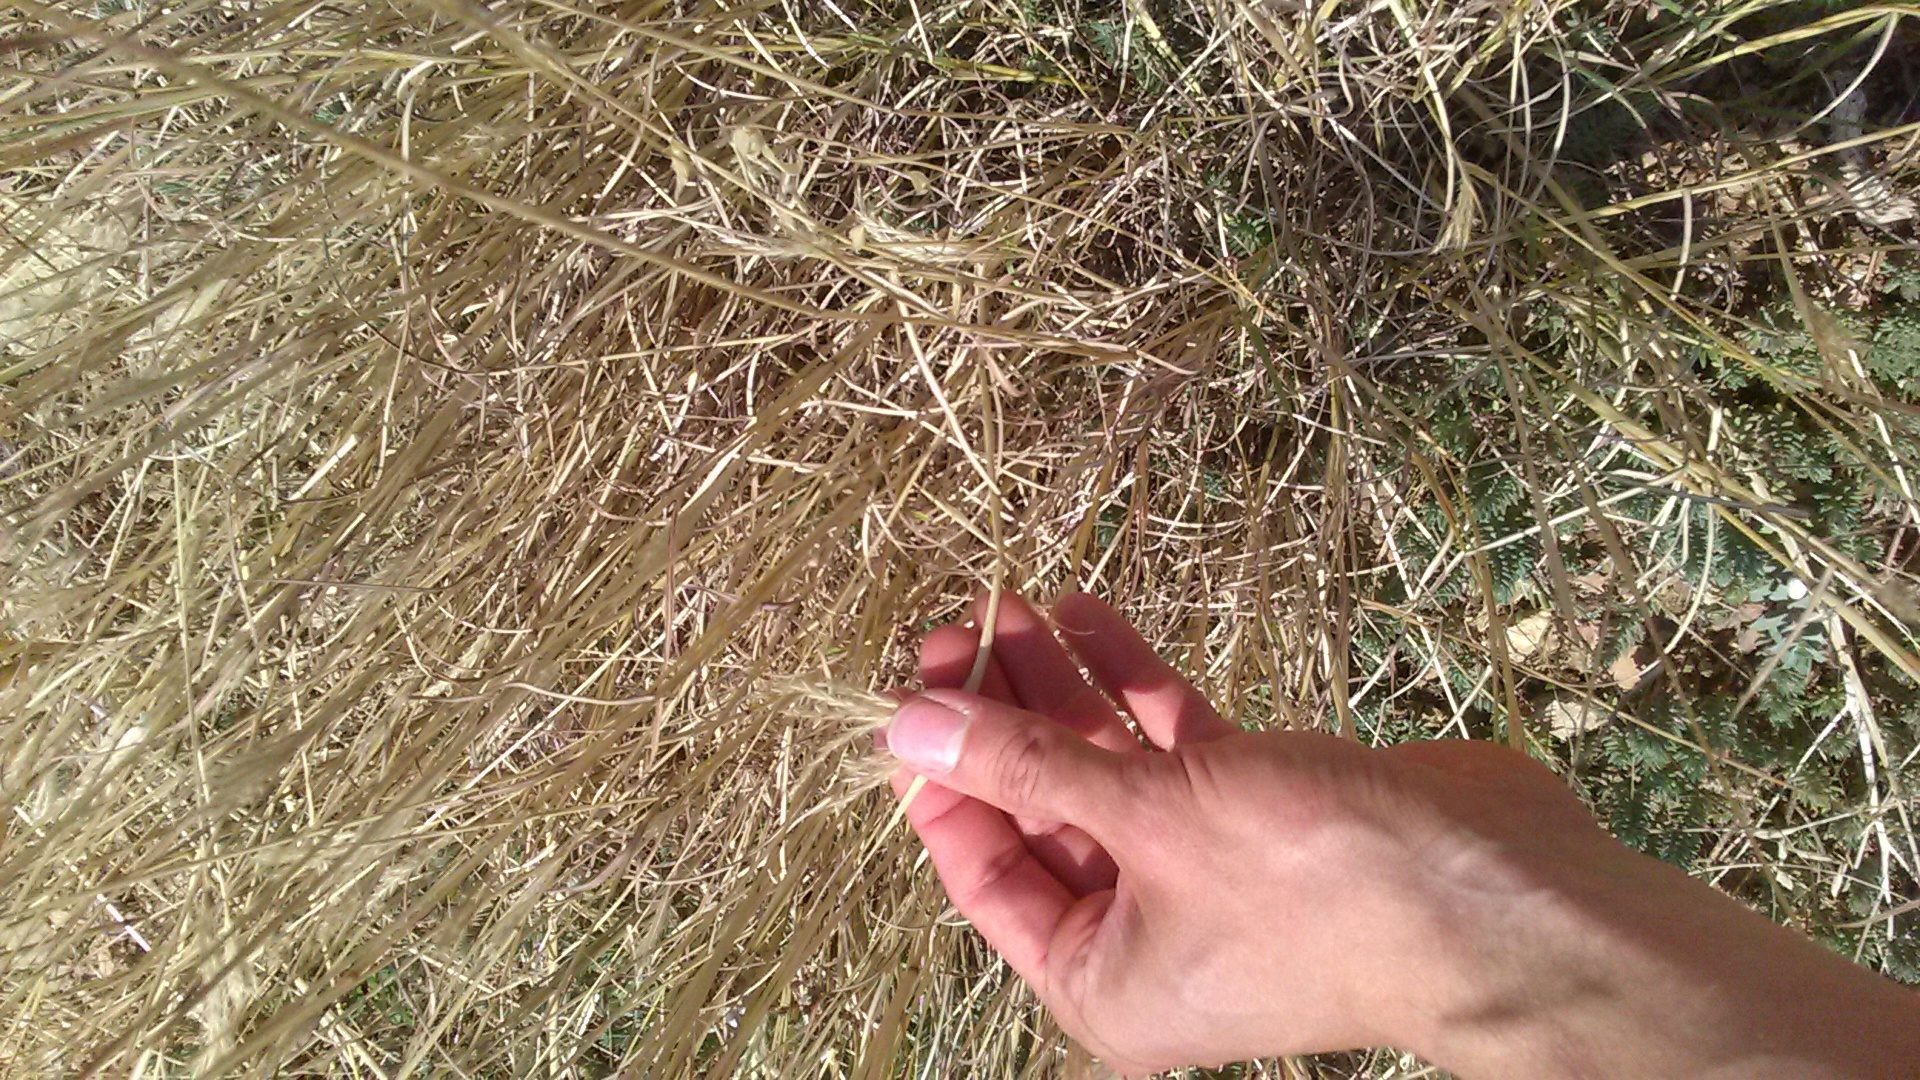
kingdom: Plantae
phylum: Tracheophyta
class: Liliopsida
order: Poales
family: Poaceae
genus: Bothriochloa
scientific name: Bothriochloa ischaemum
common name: Yellow bluestem
